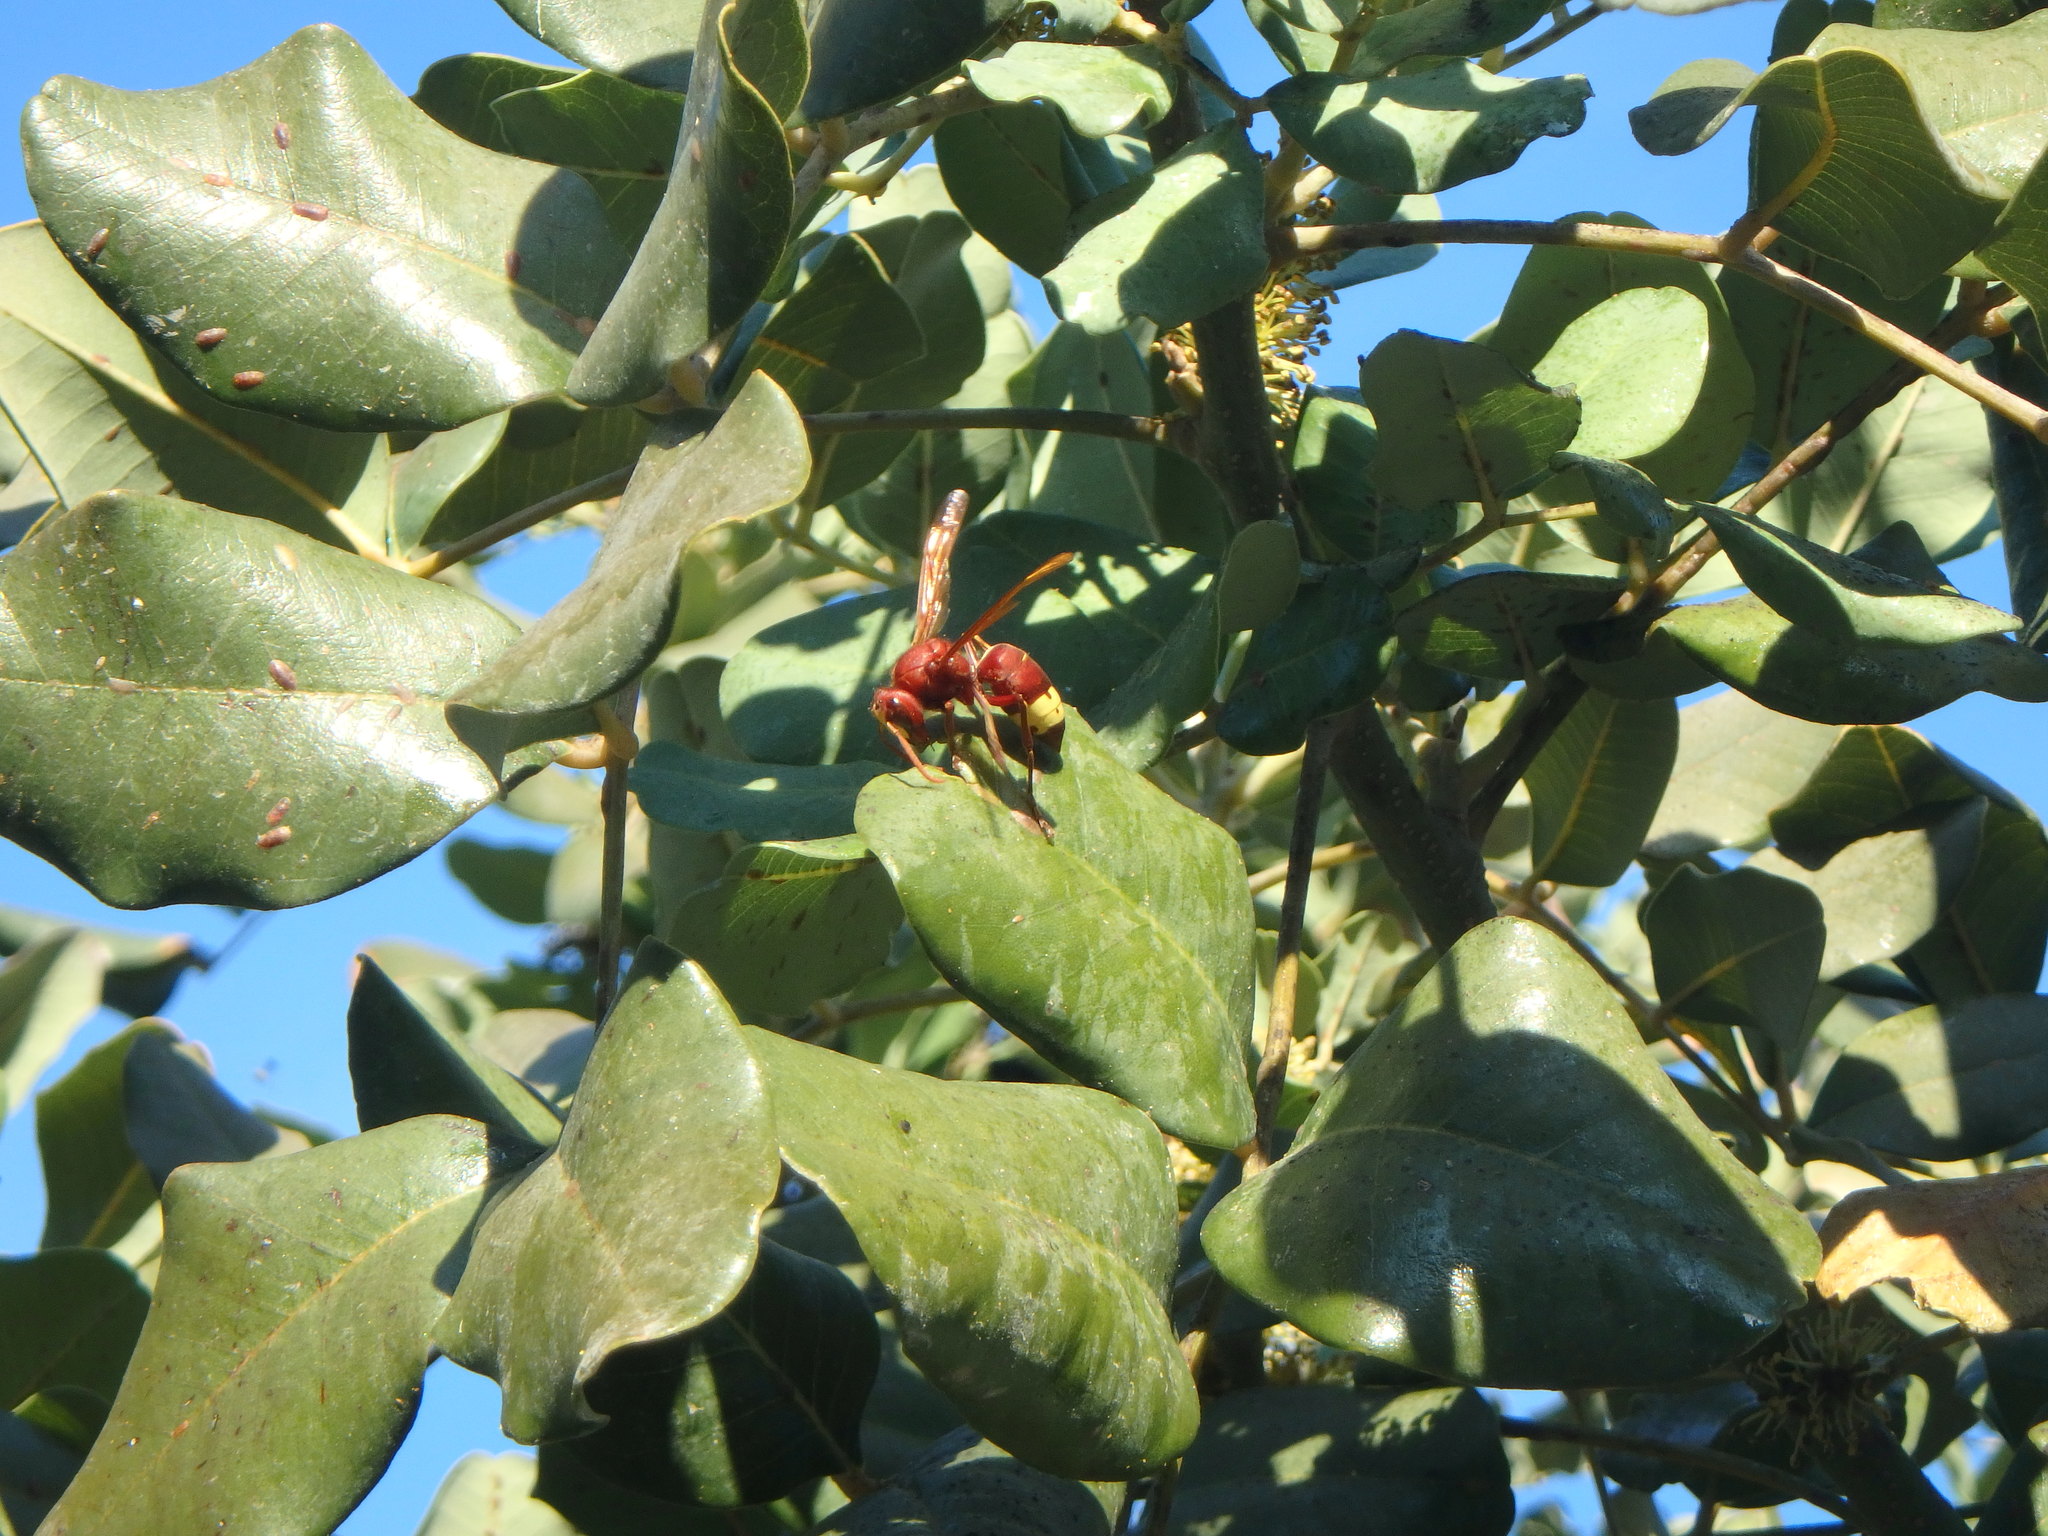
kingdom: Animalia
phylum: Arthropoda
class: Insecta
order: Hymenoptera
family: Vespidae
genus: Vespa
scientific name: Vespa orientalis
